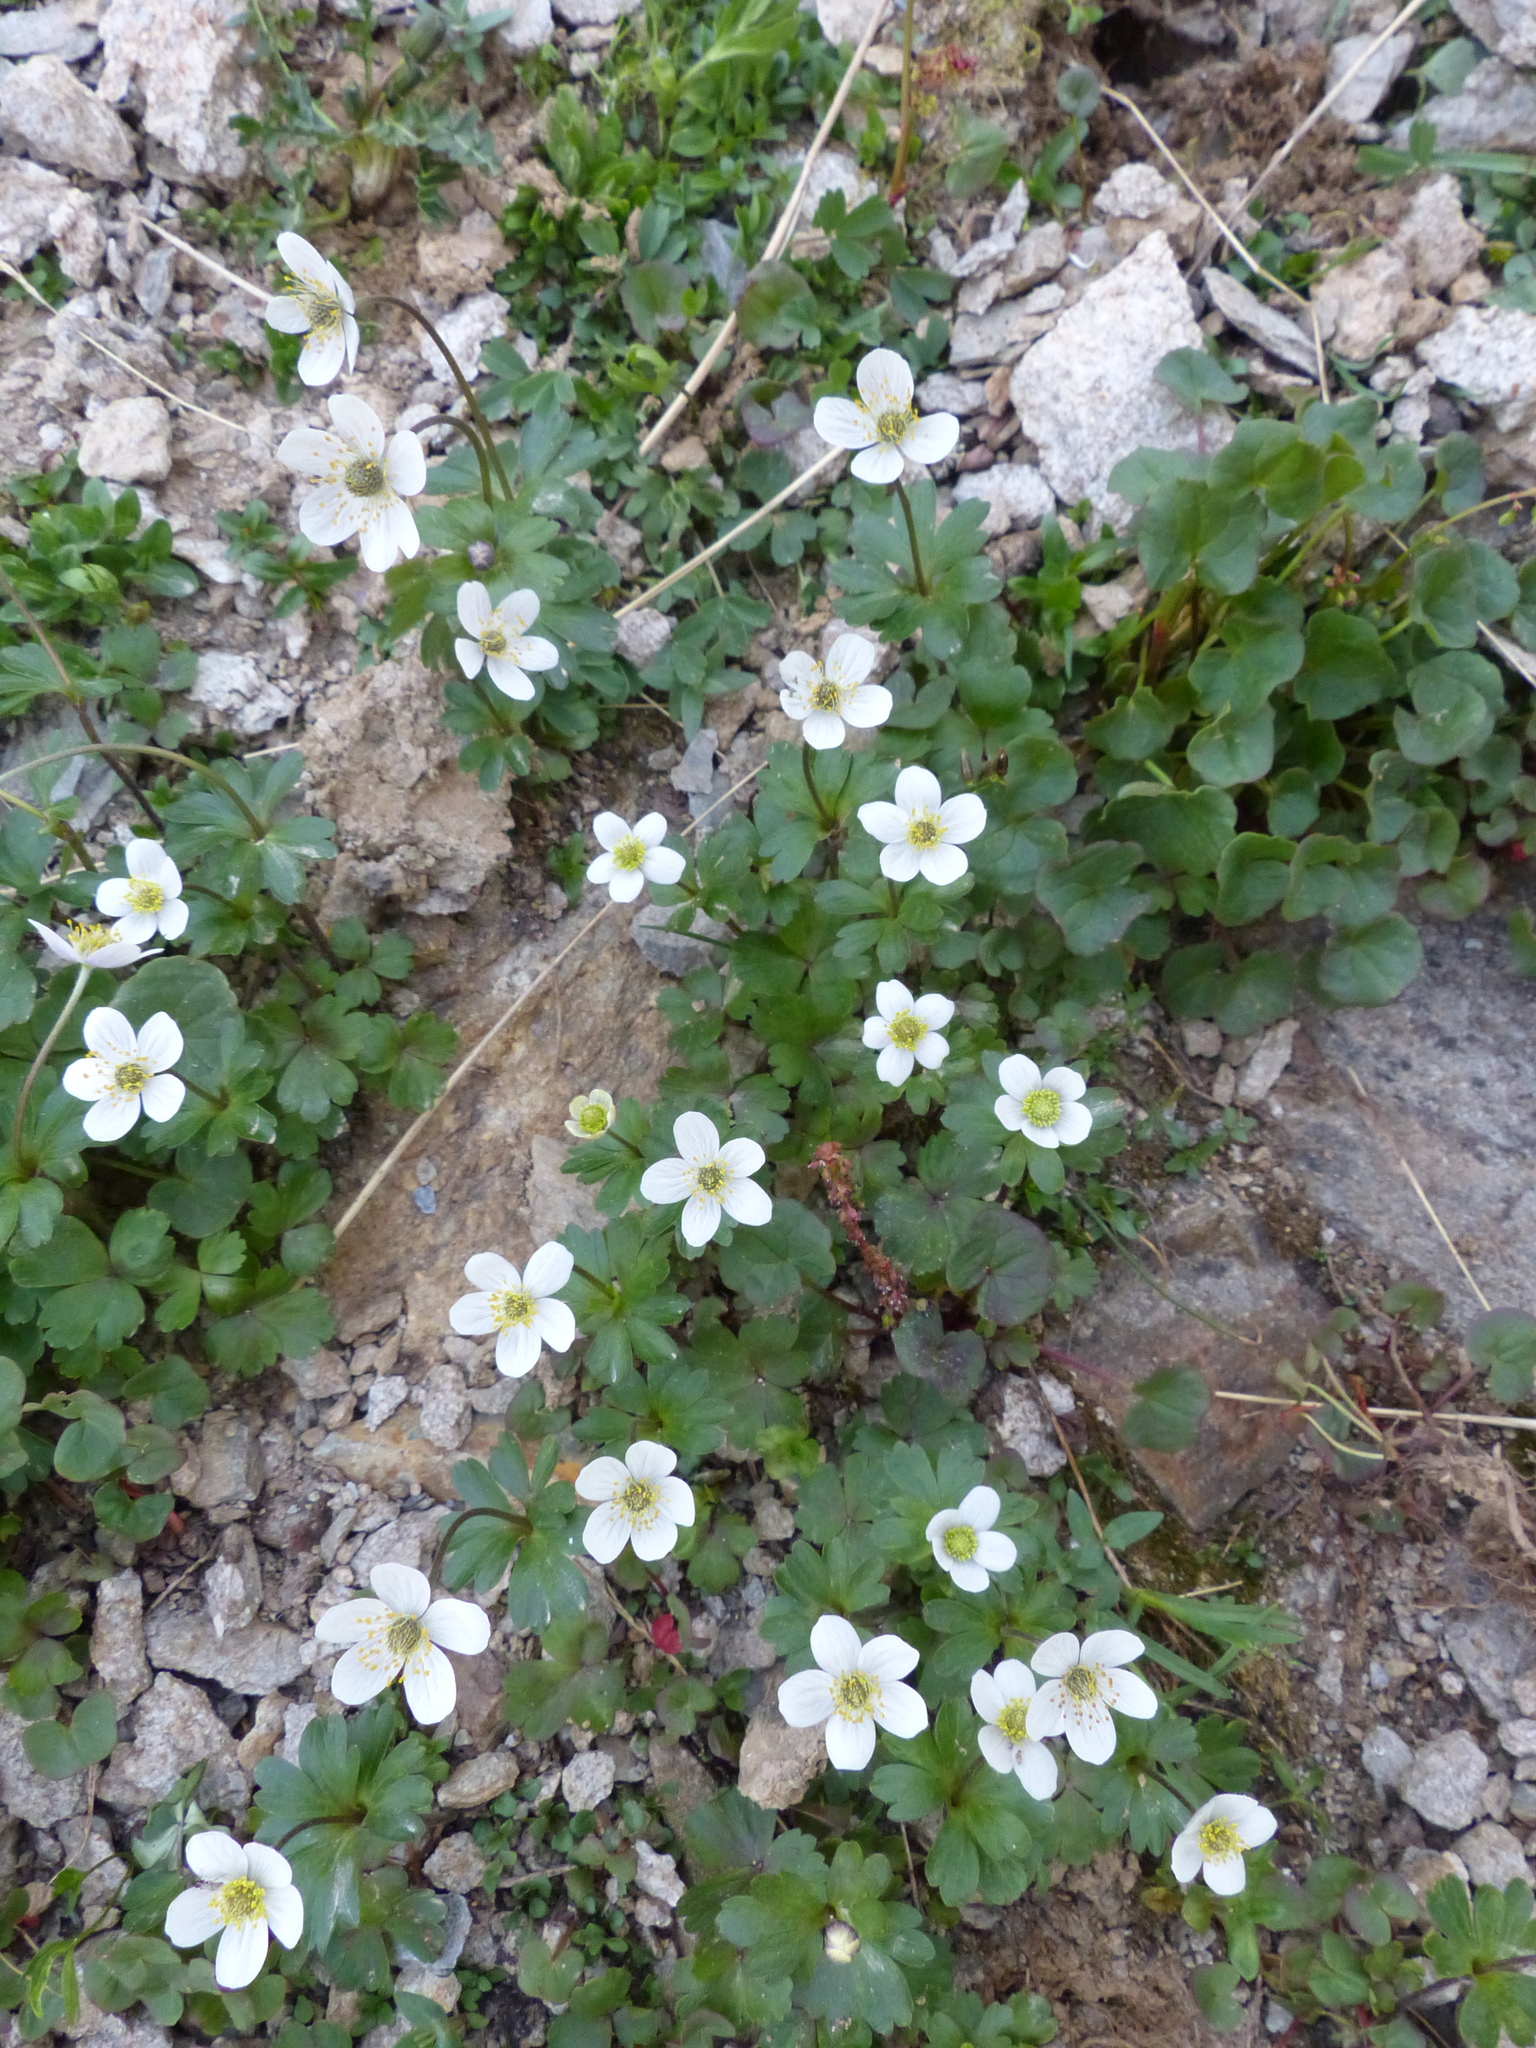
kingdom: Plantae
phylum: Tracheophyta
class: Magnoliopsida
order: Ranunculales
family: Ranunculaceae
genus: Anemone
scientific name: Anemone parviflora
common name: Northern anemone
